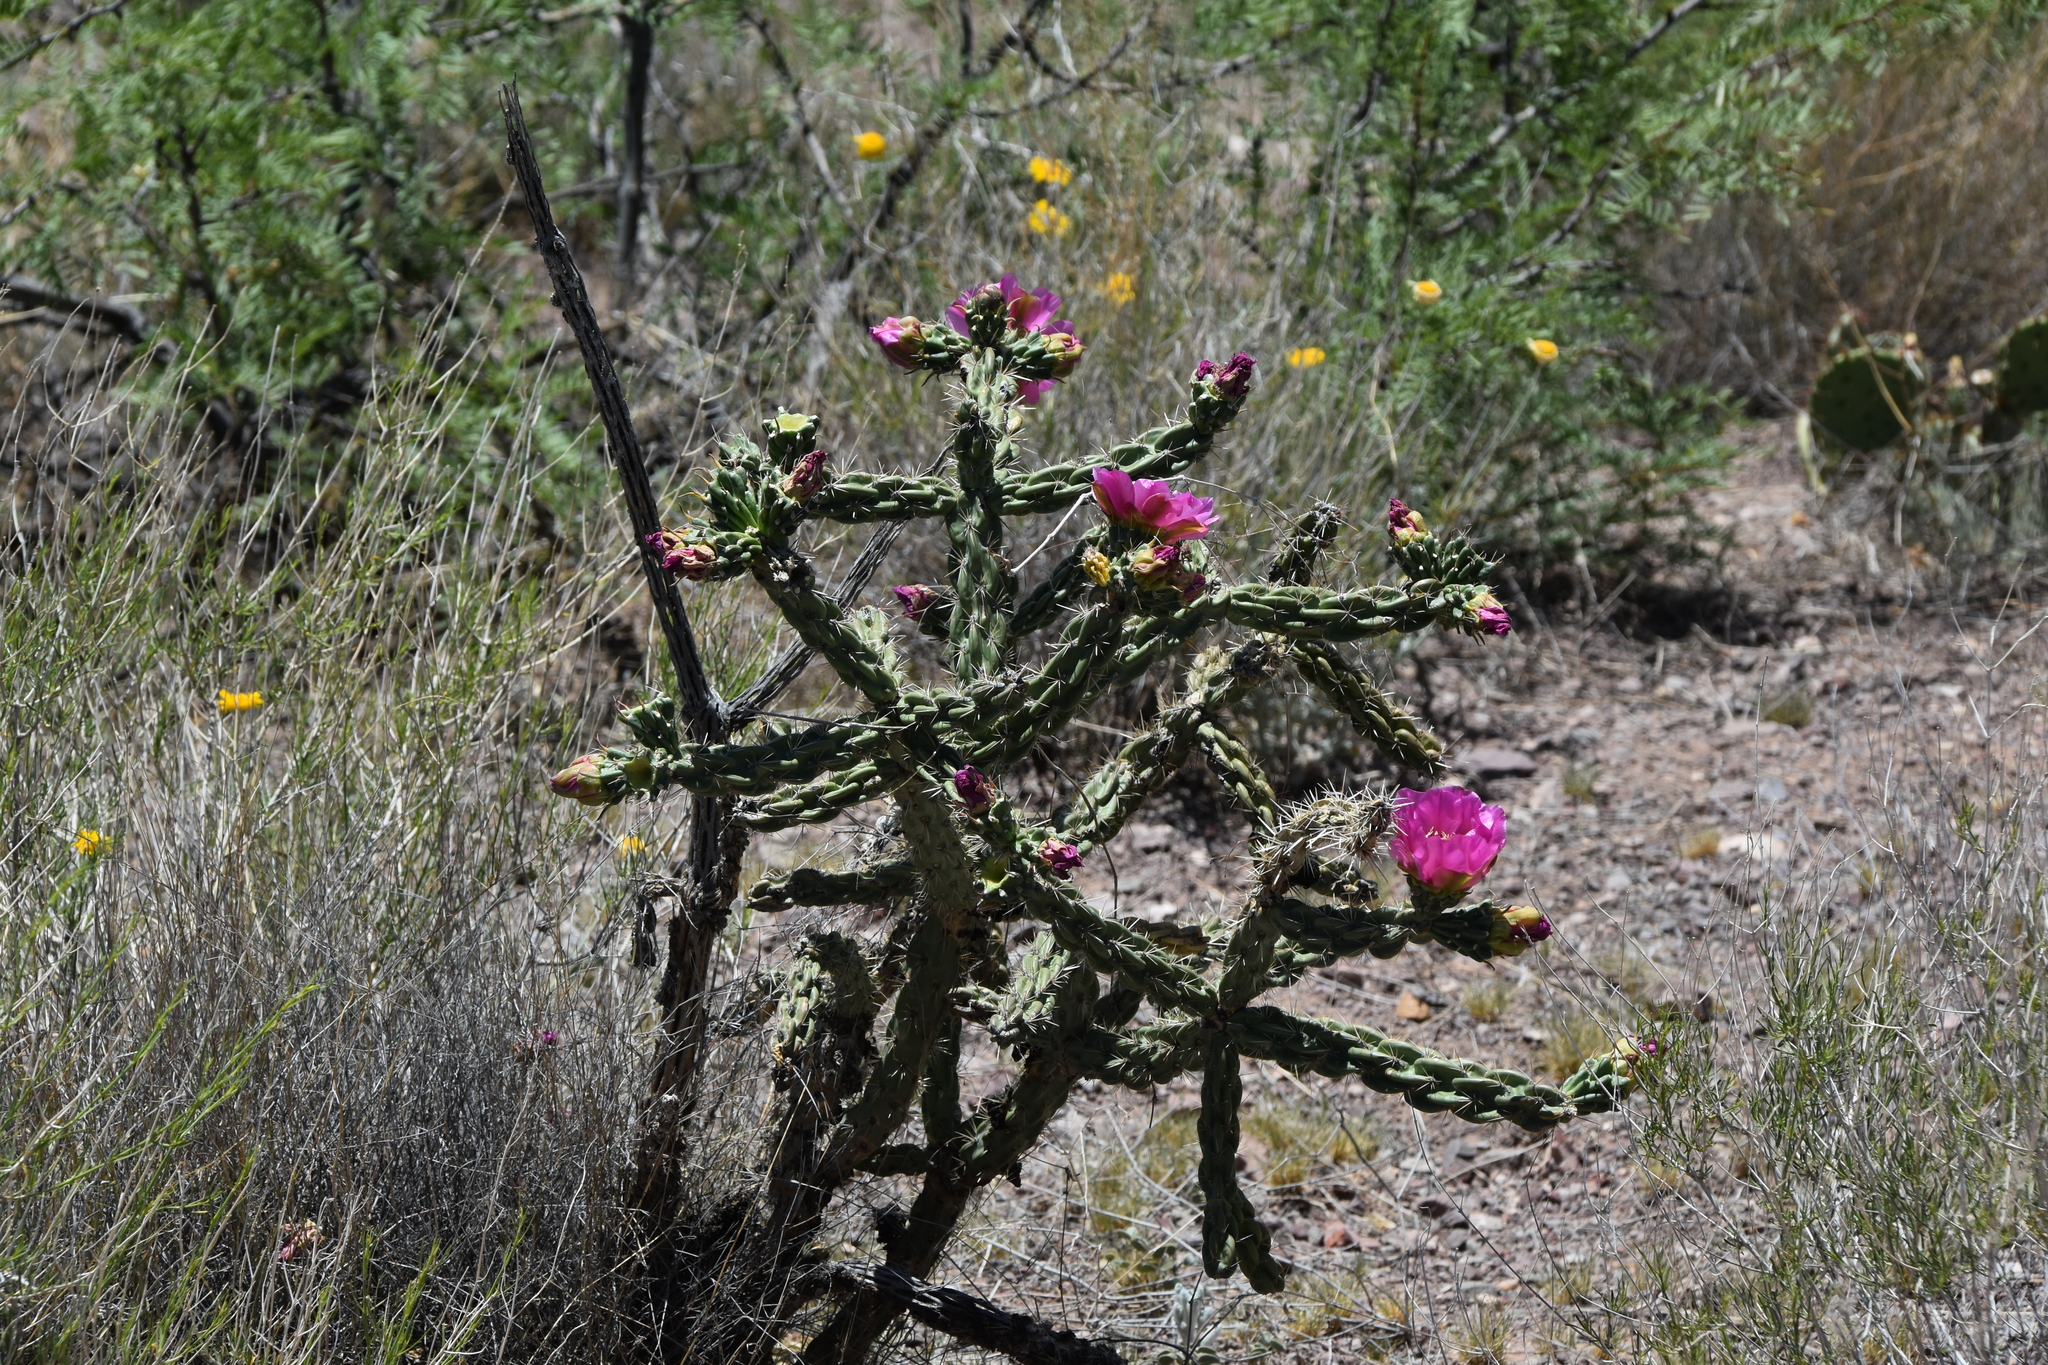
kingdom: Plantae
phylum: Tracheophyta
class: Magnoliopsida
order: Caryophyllales
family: Cactaceae
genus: Cylindropuntia
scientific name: Cylindropuntia imbricata
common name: Candelabrum cactus
